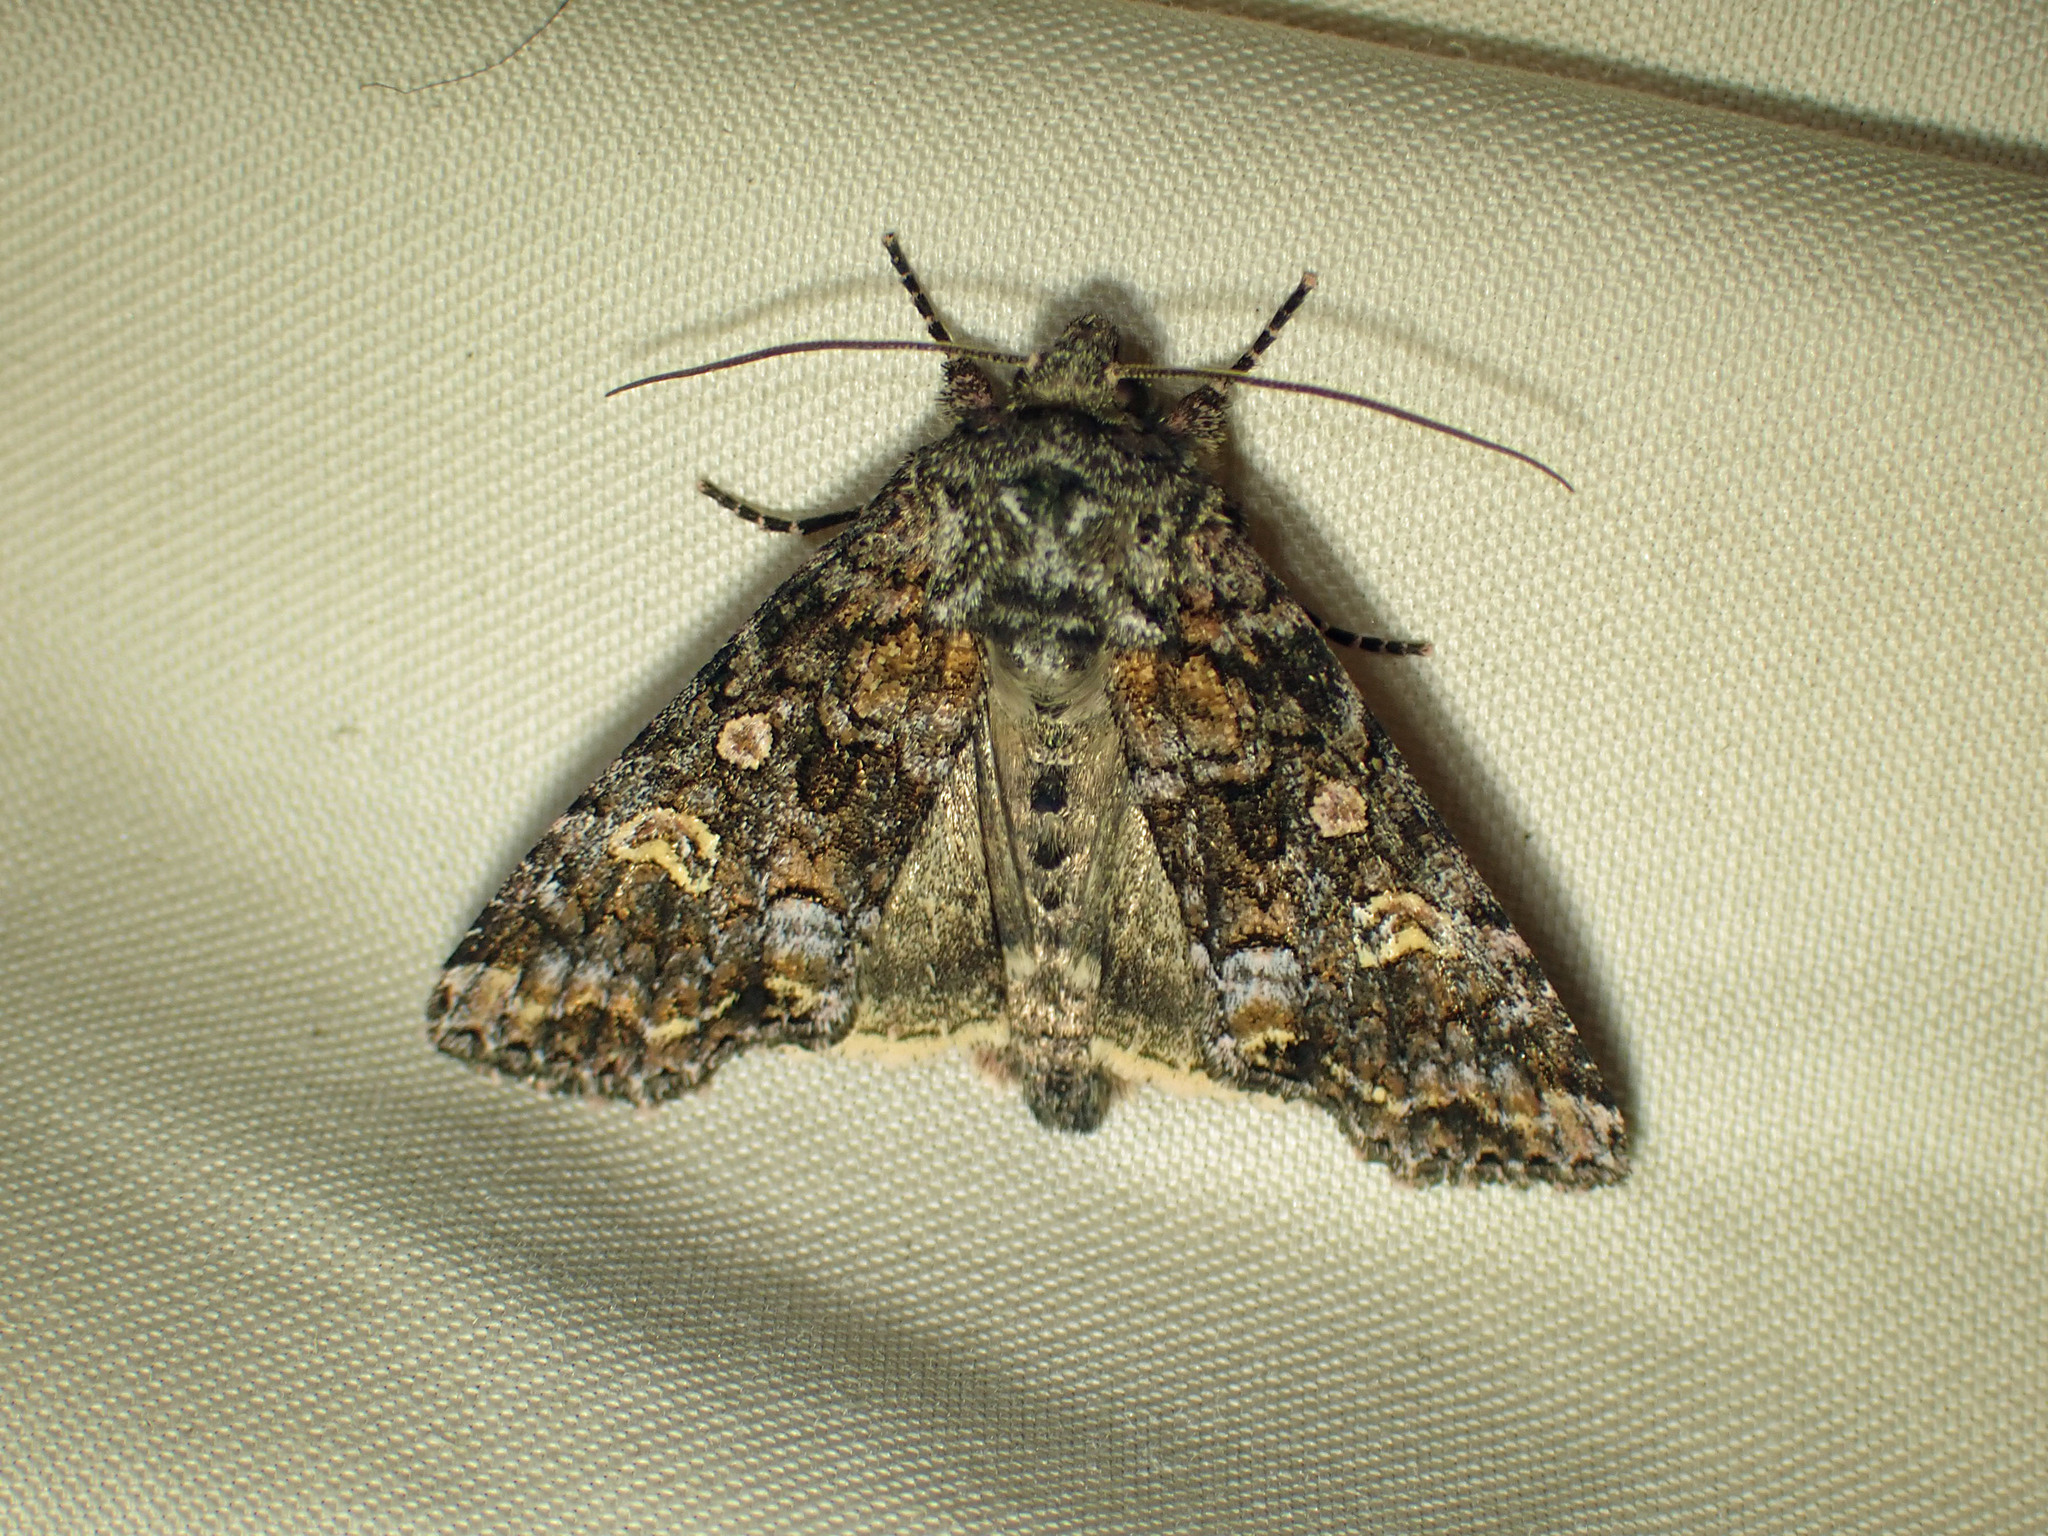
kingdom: Animalia
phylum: Arthropoda
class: Insecta
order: Lepidoptera
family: Noctuidae
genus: Spiramater
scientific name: Spiramater lutra
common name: Otter spiramater moth
